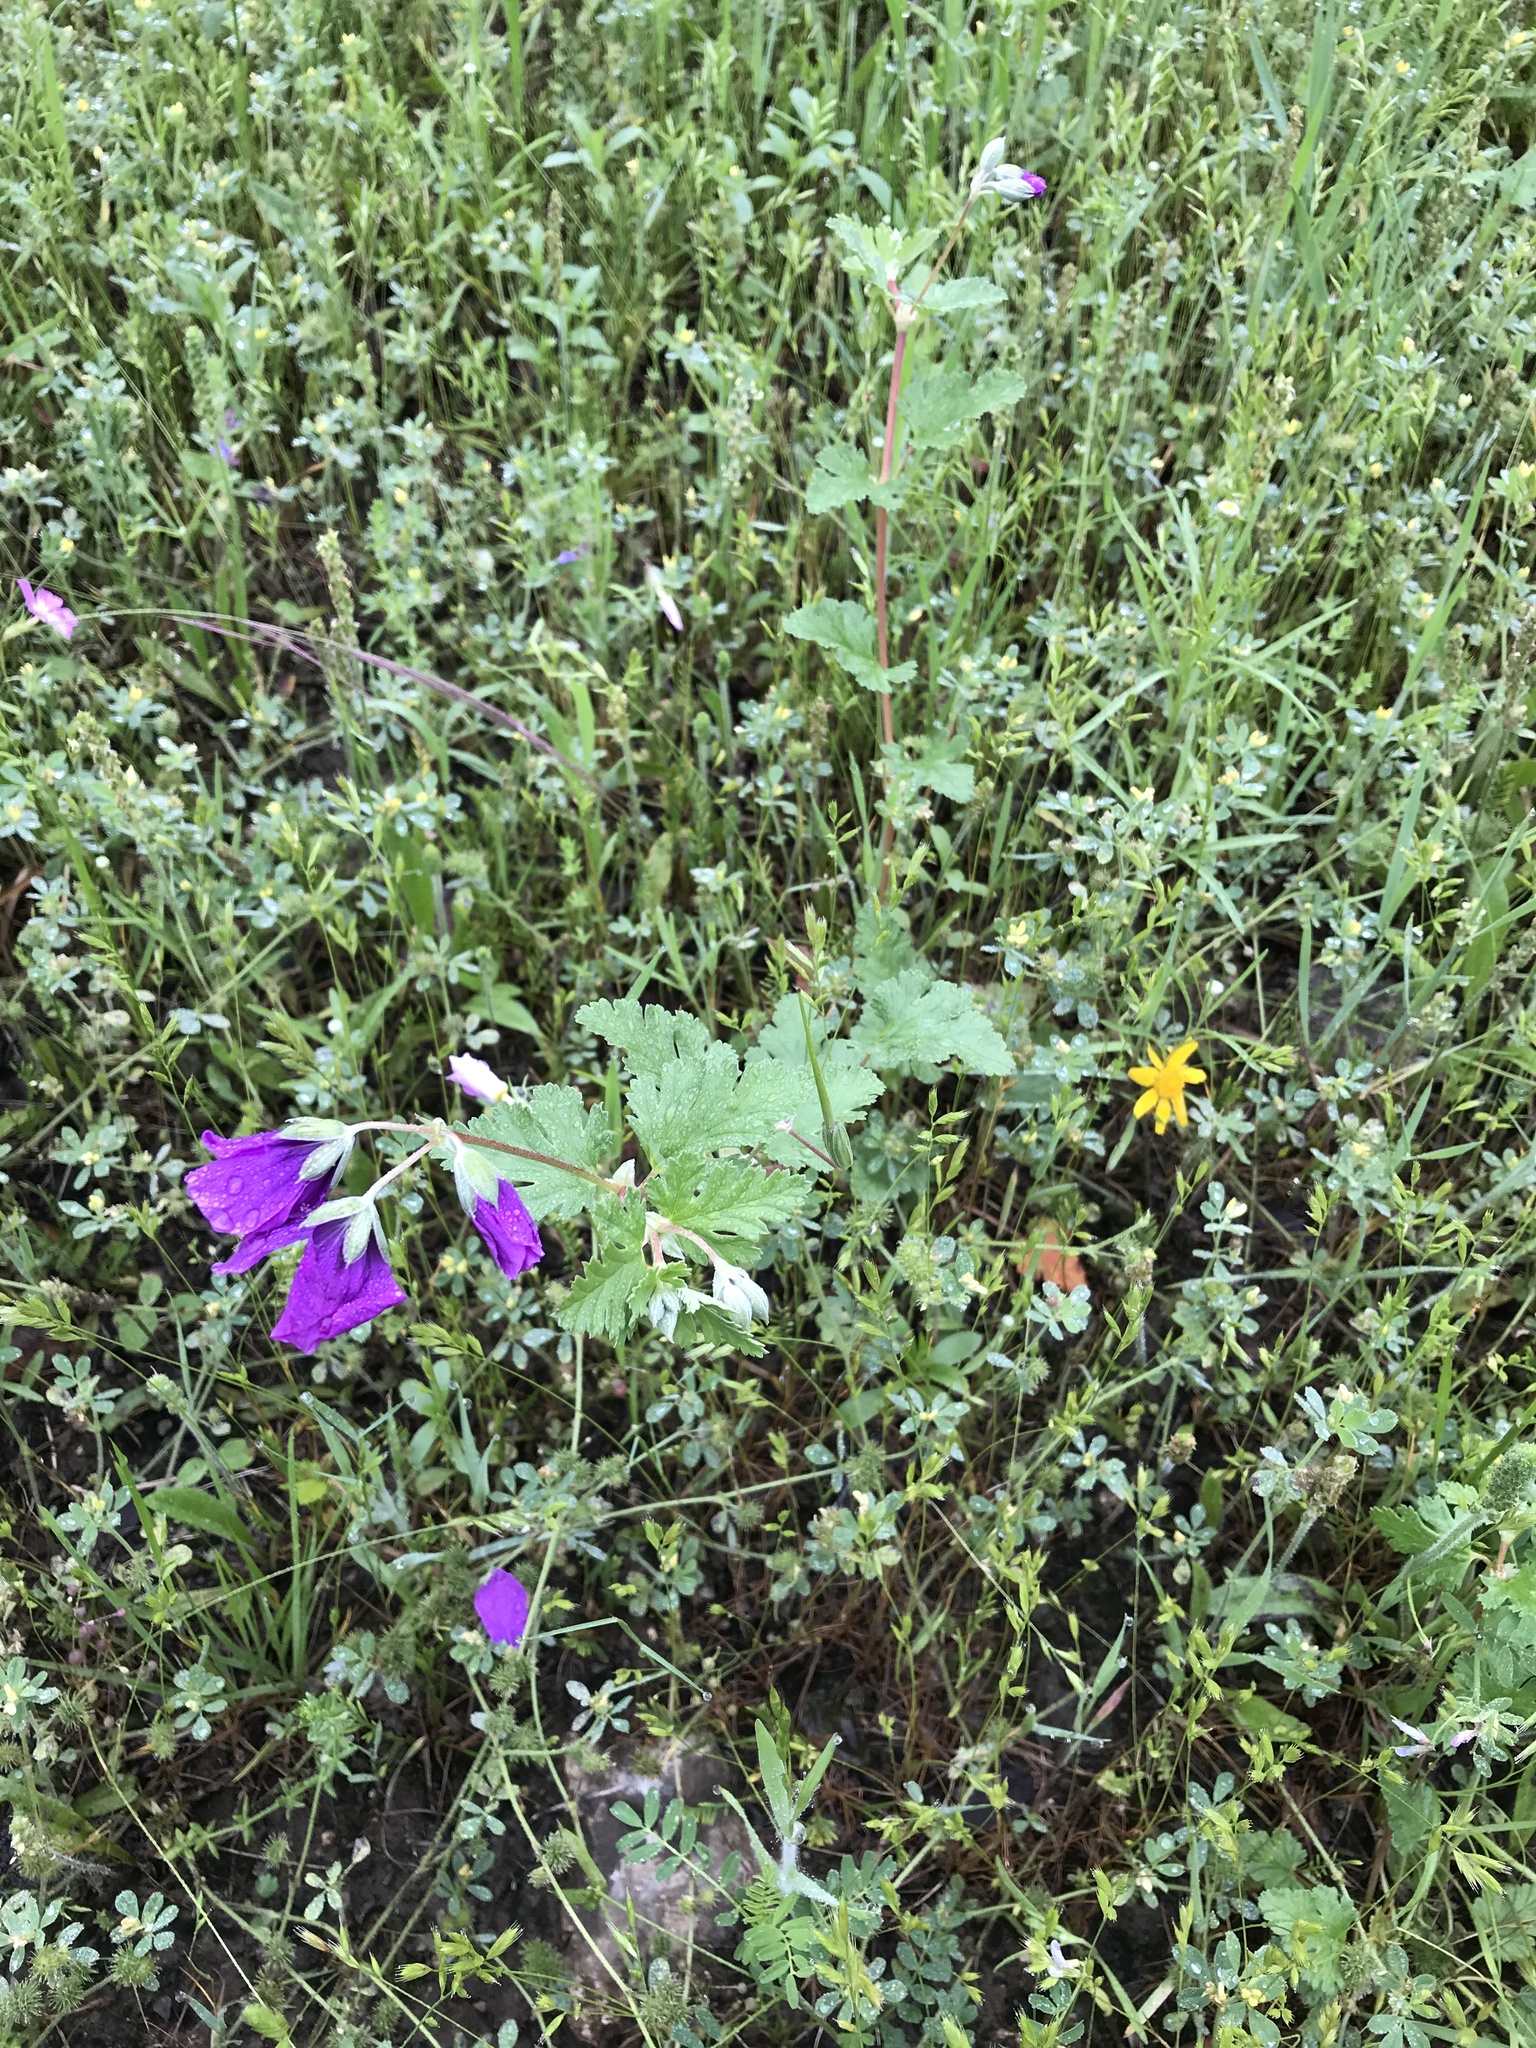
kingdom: Plantae
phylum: Tracheophyta
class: Magnoliopsida
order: Geraniales
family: Geraniaceae
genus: Erodium
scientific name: Erodium texanum
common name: Texas stork's-bill
